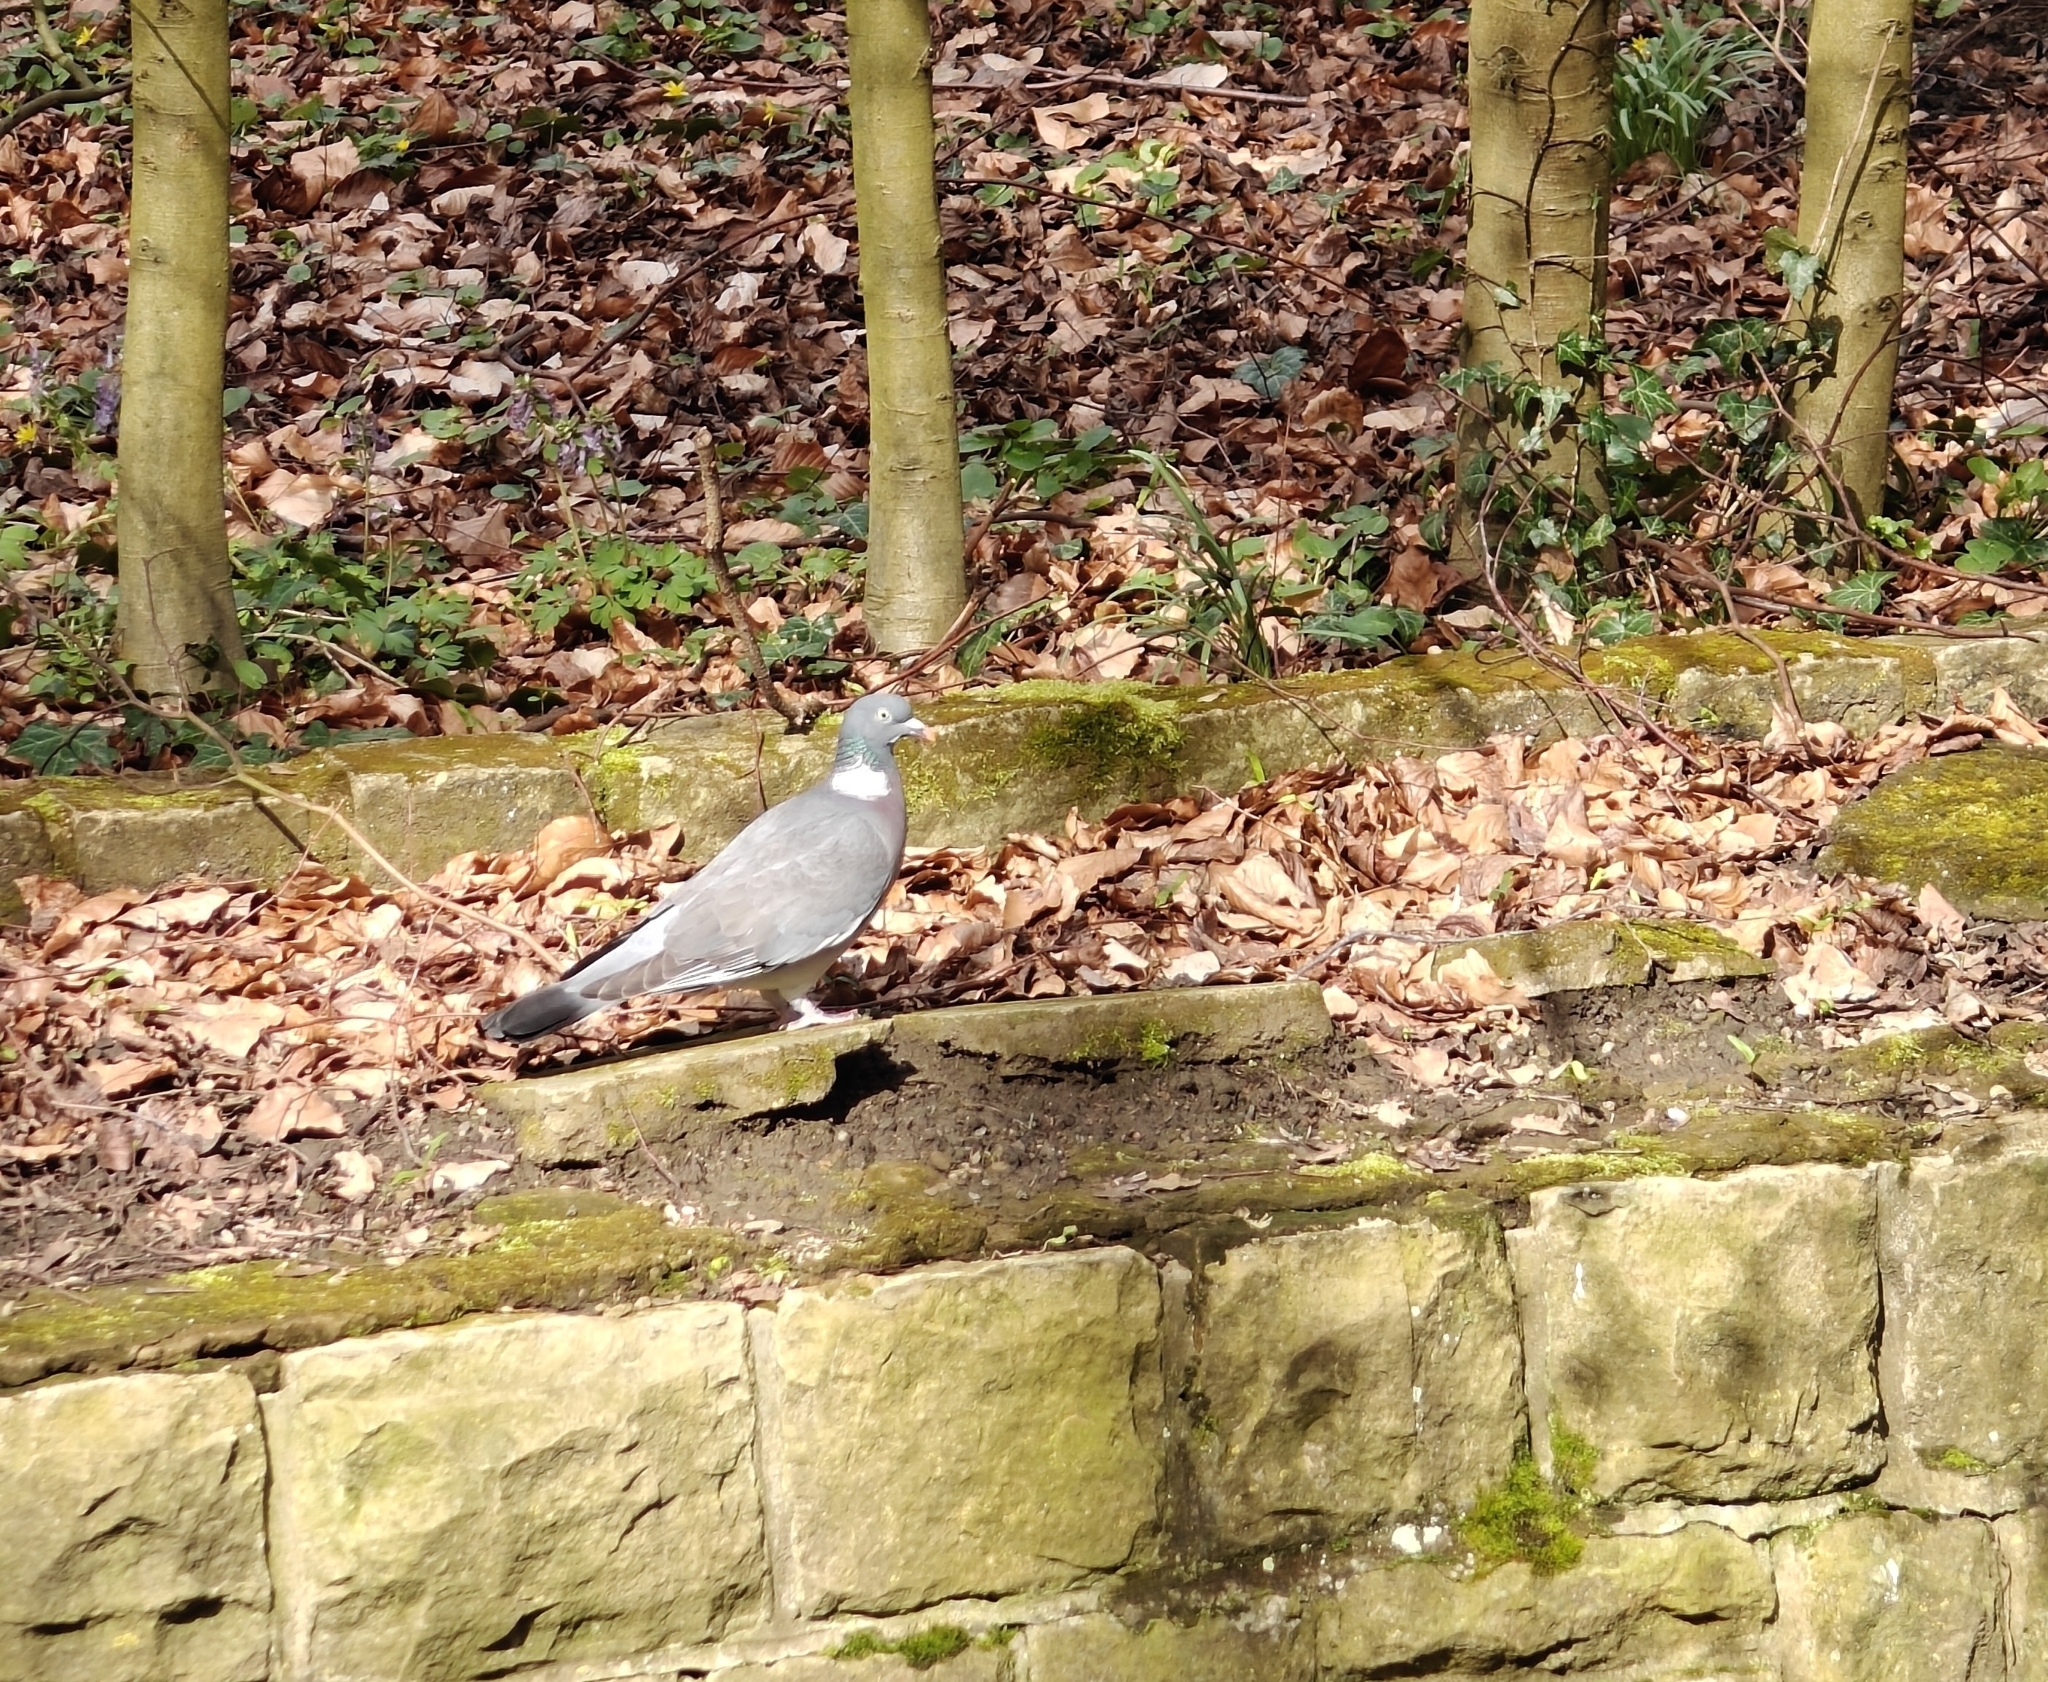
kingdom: Animalia
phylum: Chordata
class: Aves
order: Columbiformes
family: Columbidae
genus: Columba
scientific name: Columba palumbus
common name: Common wood pigeon
